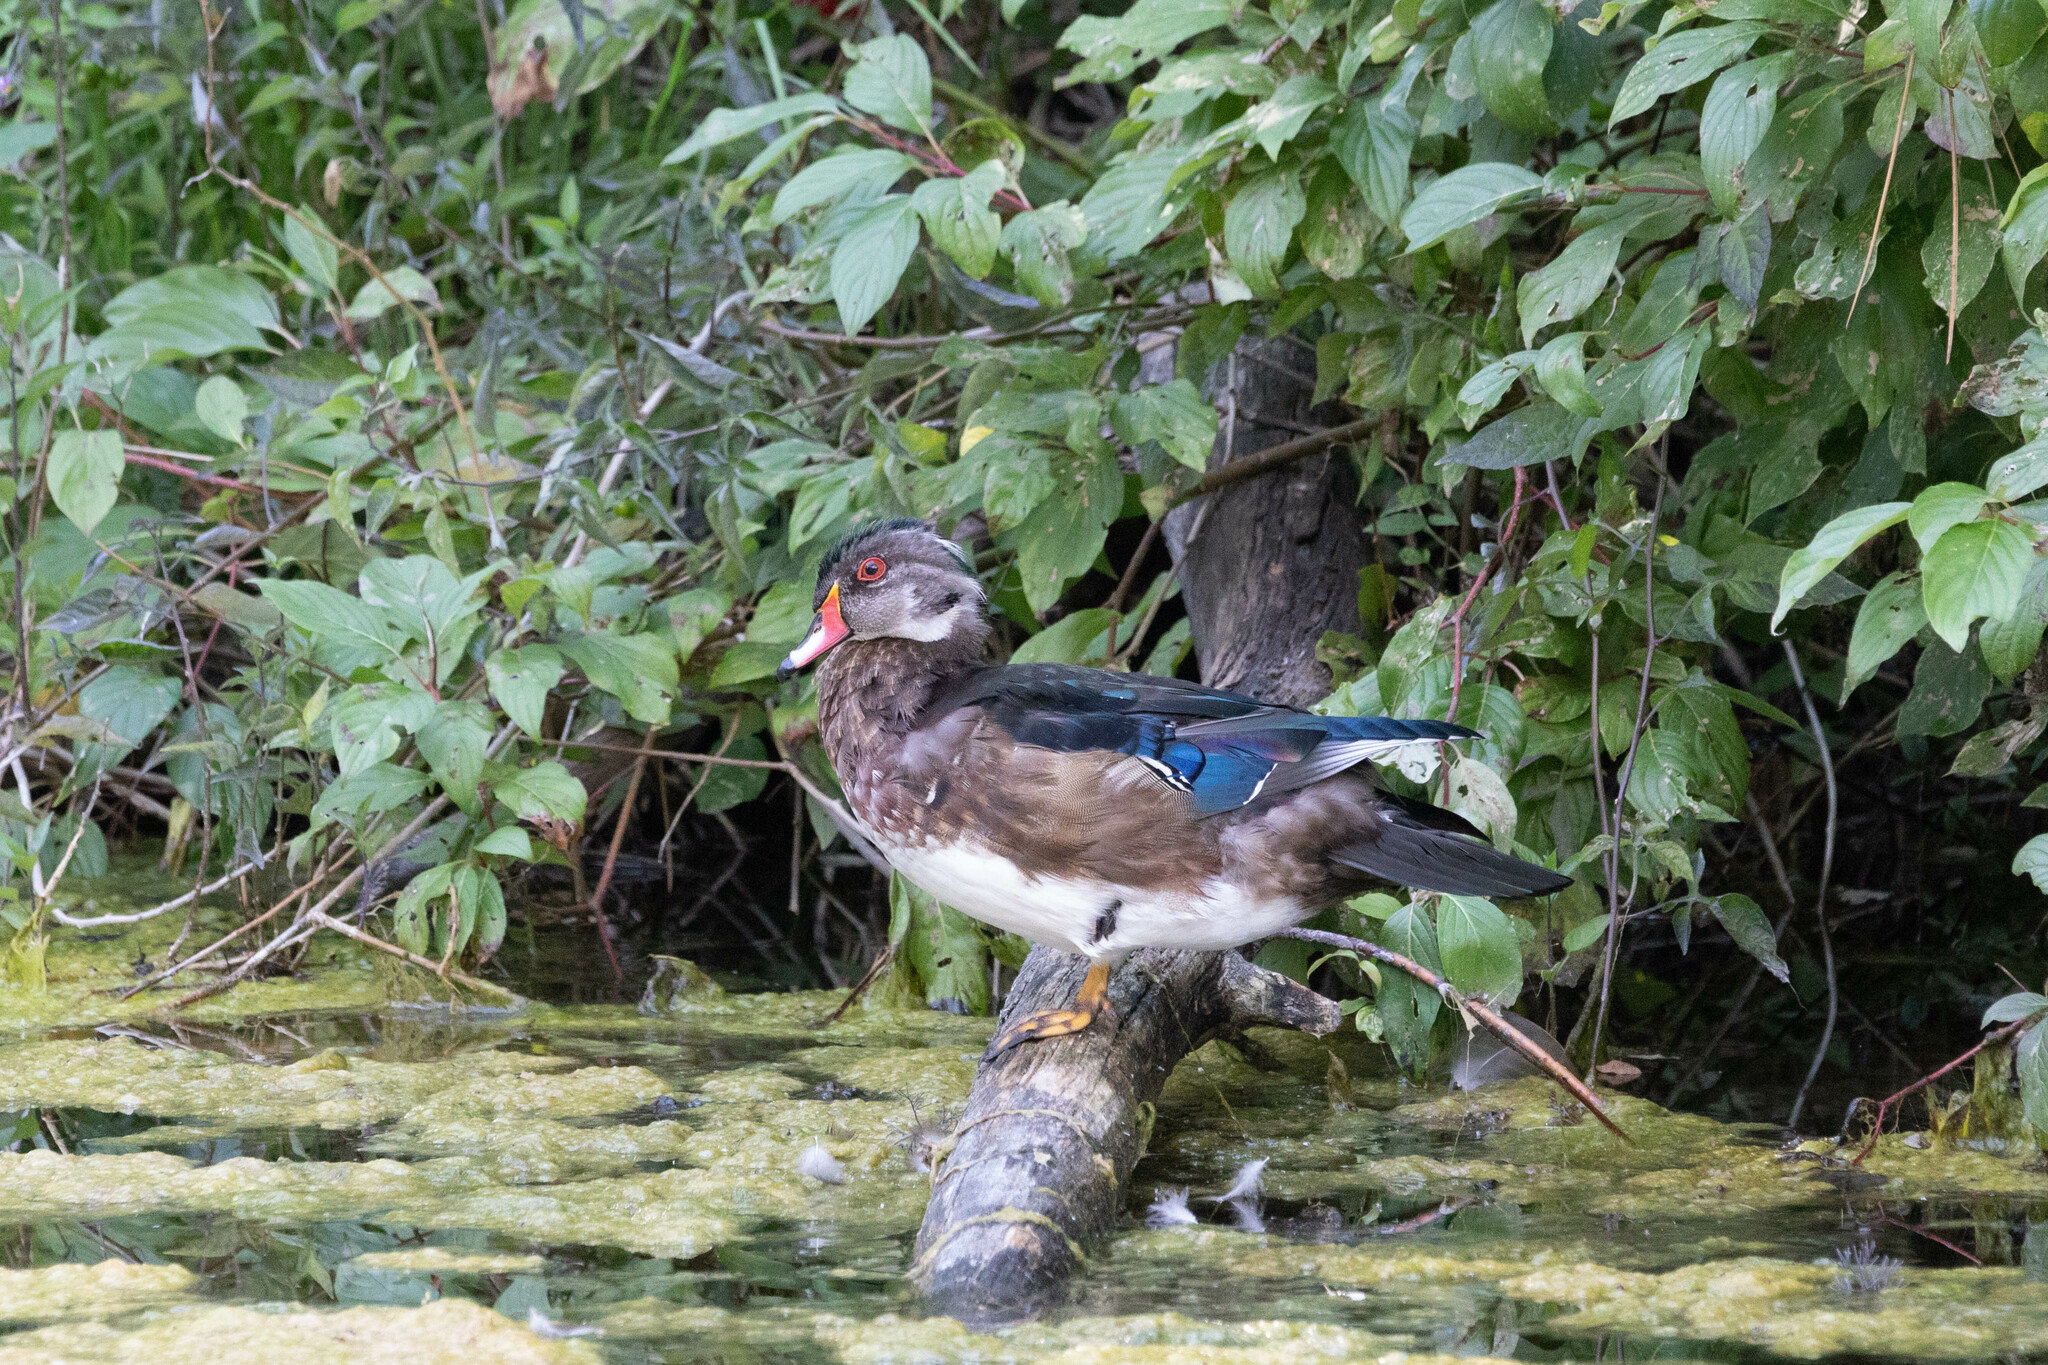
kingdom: Animalia
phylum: Chordata
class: Aves
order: Anseriformes
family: Anatidae
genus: Aix
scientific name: Aix sponsa
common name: Wood duck
